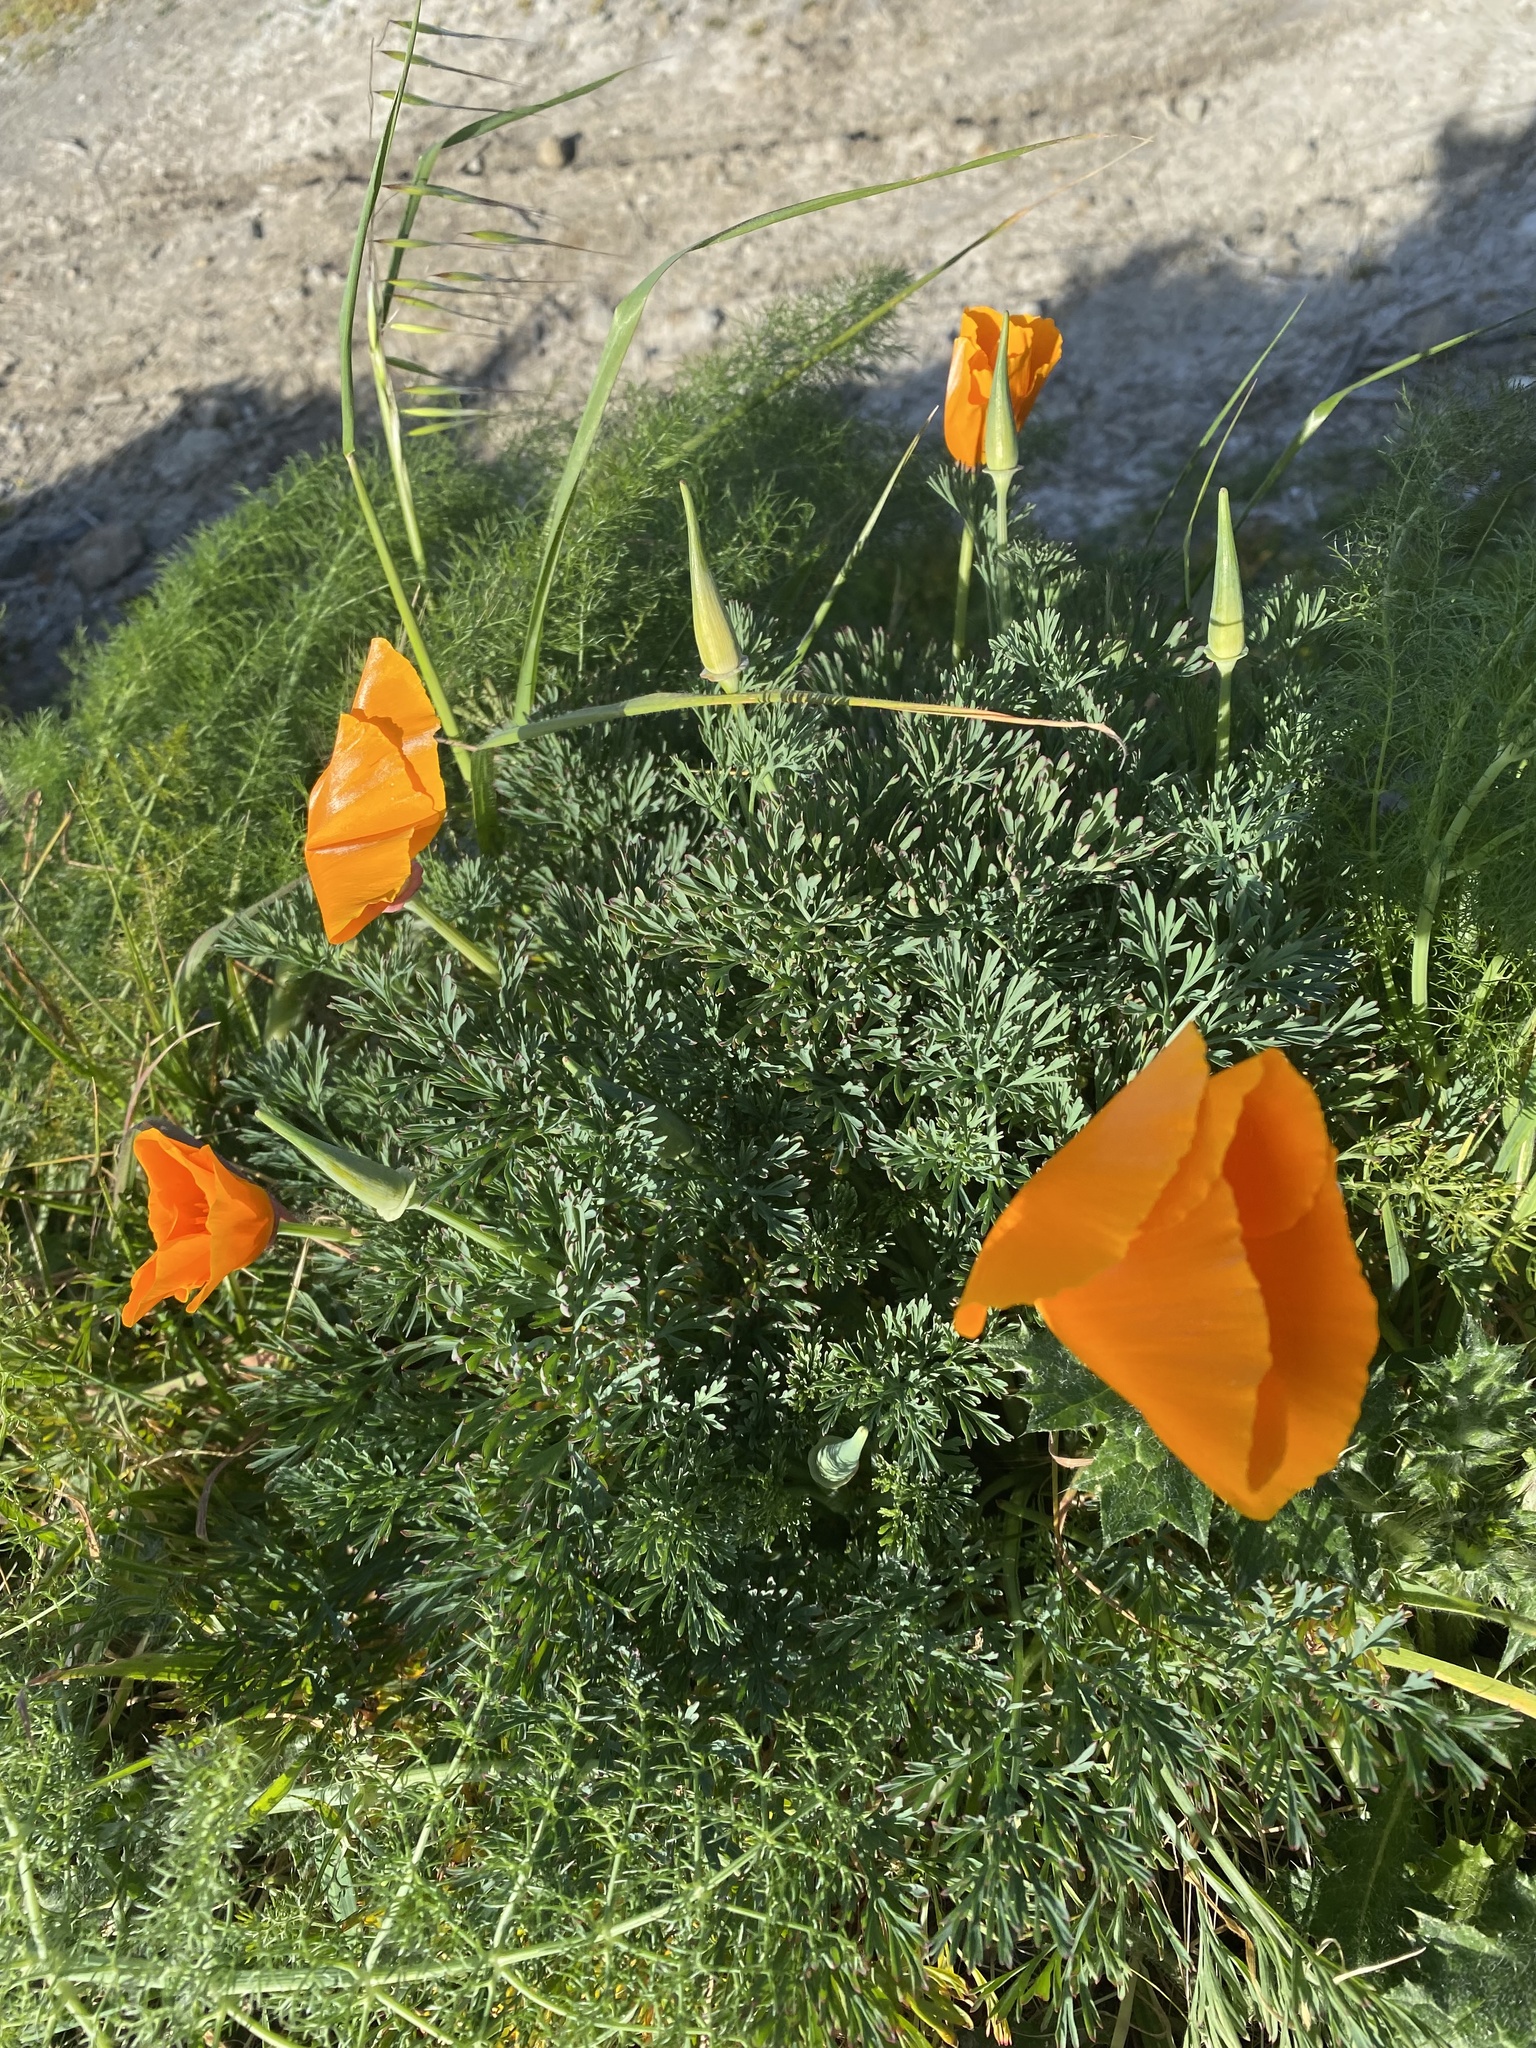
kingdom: Plantae
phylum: Tracheophyta
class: Magnoliopsida
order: Ranunculales
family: Papaveraceae
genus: Eschscholzia
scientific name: Eschscholzia californica
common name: California poppy
